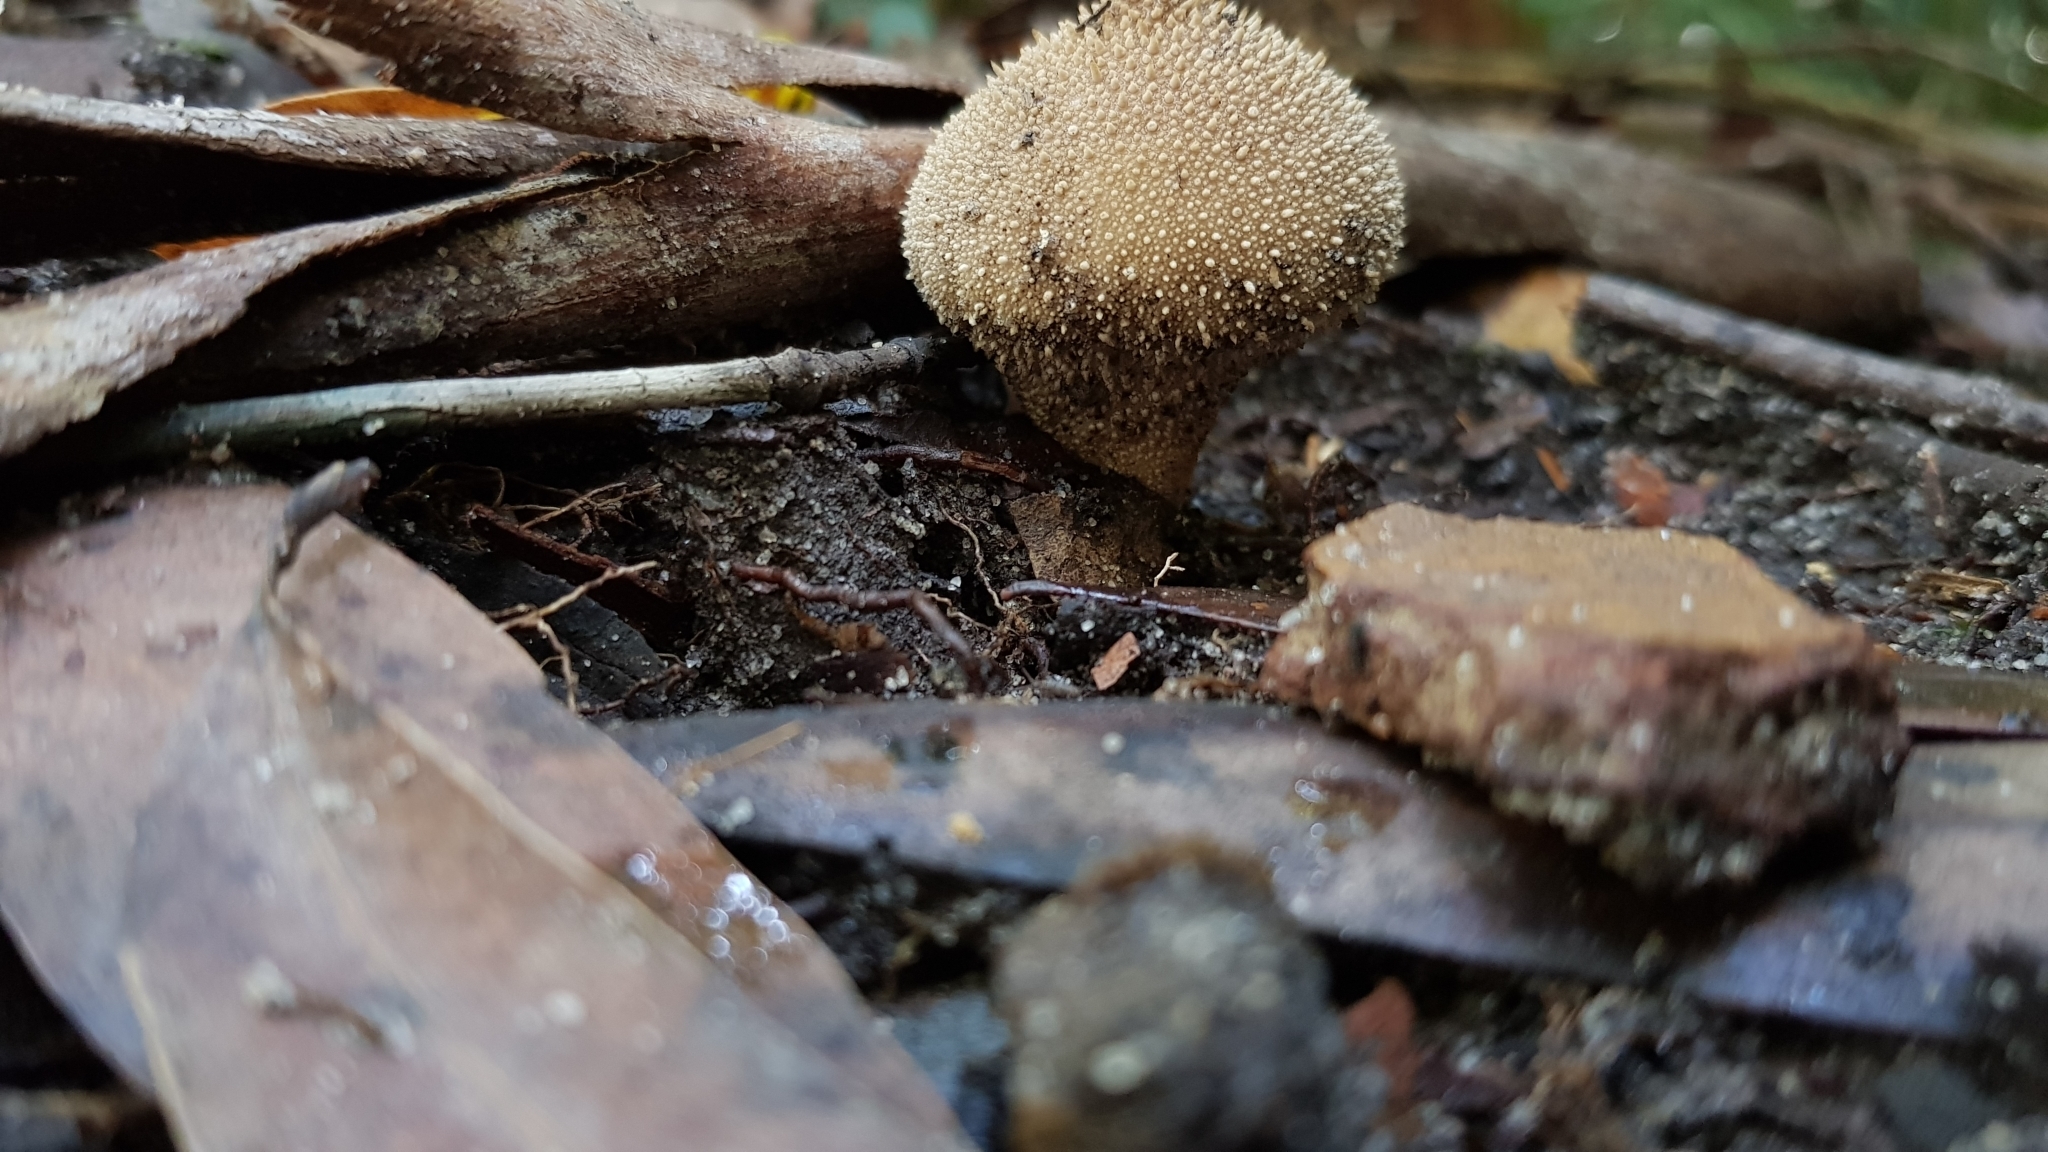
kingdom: Fungi
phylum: Basidiomycota
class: Agaricomycetes
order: Agaricales
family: Lycoperdaceae
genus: Lycoperdon
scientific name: Lycoperdon perlatum
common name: Common puffball
